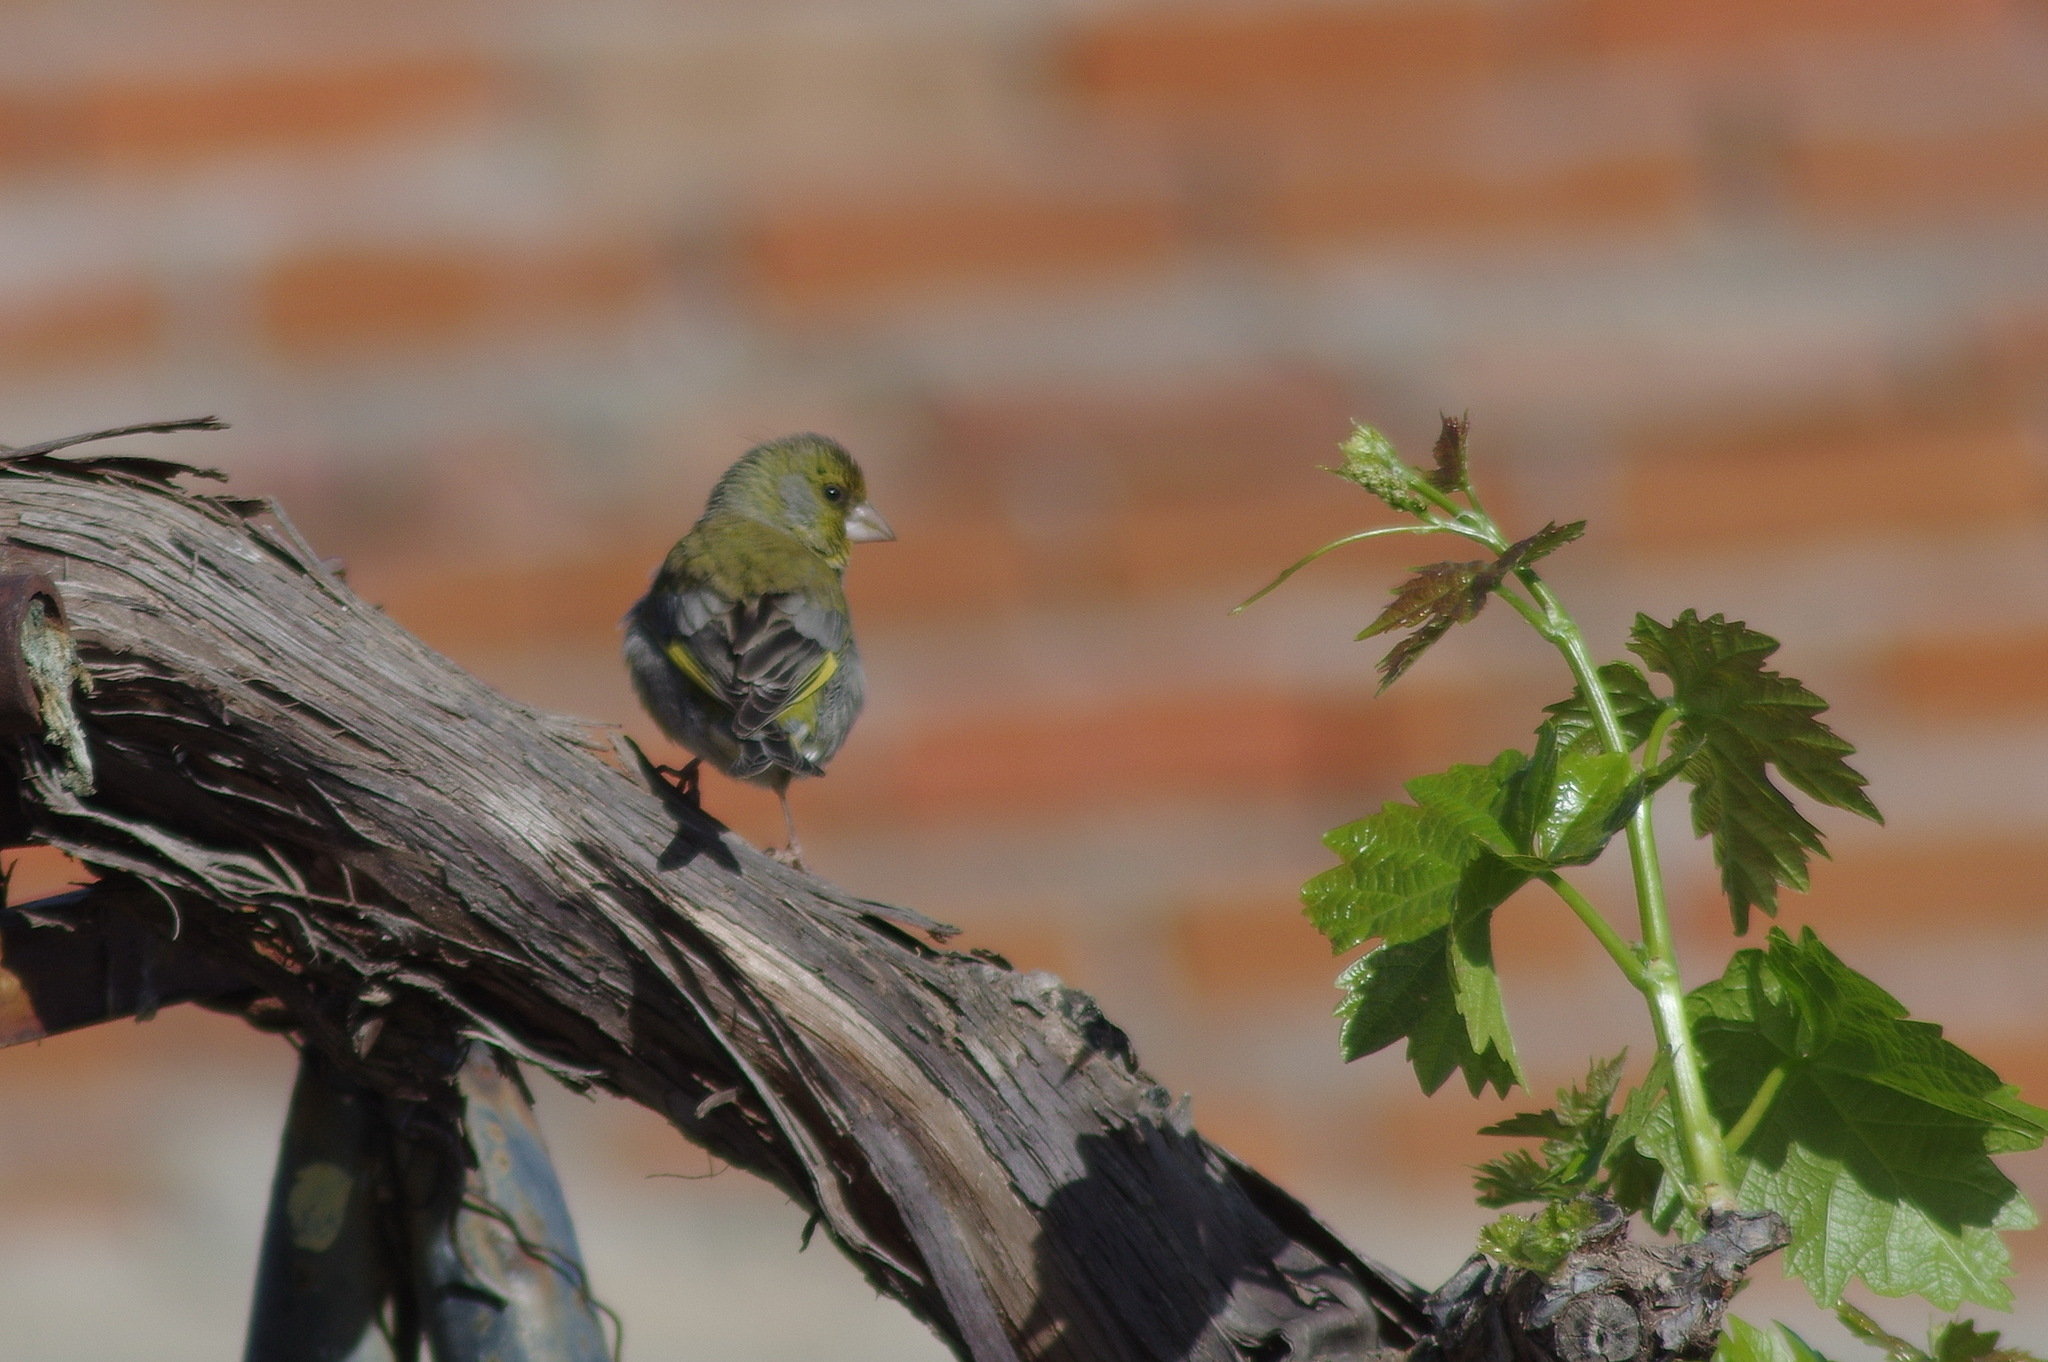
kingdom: Plantae
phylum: Tracheophyta
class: Liliopsida
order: Poales
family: Poaceae
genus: Chloris
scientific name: Chloris chloris
